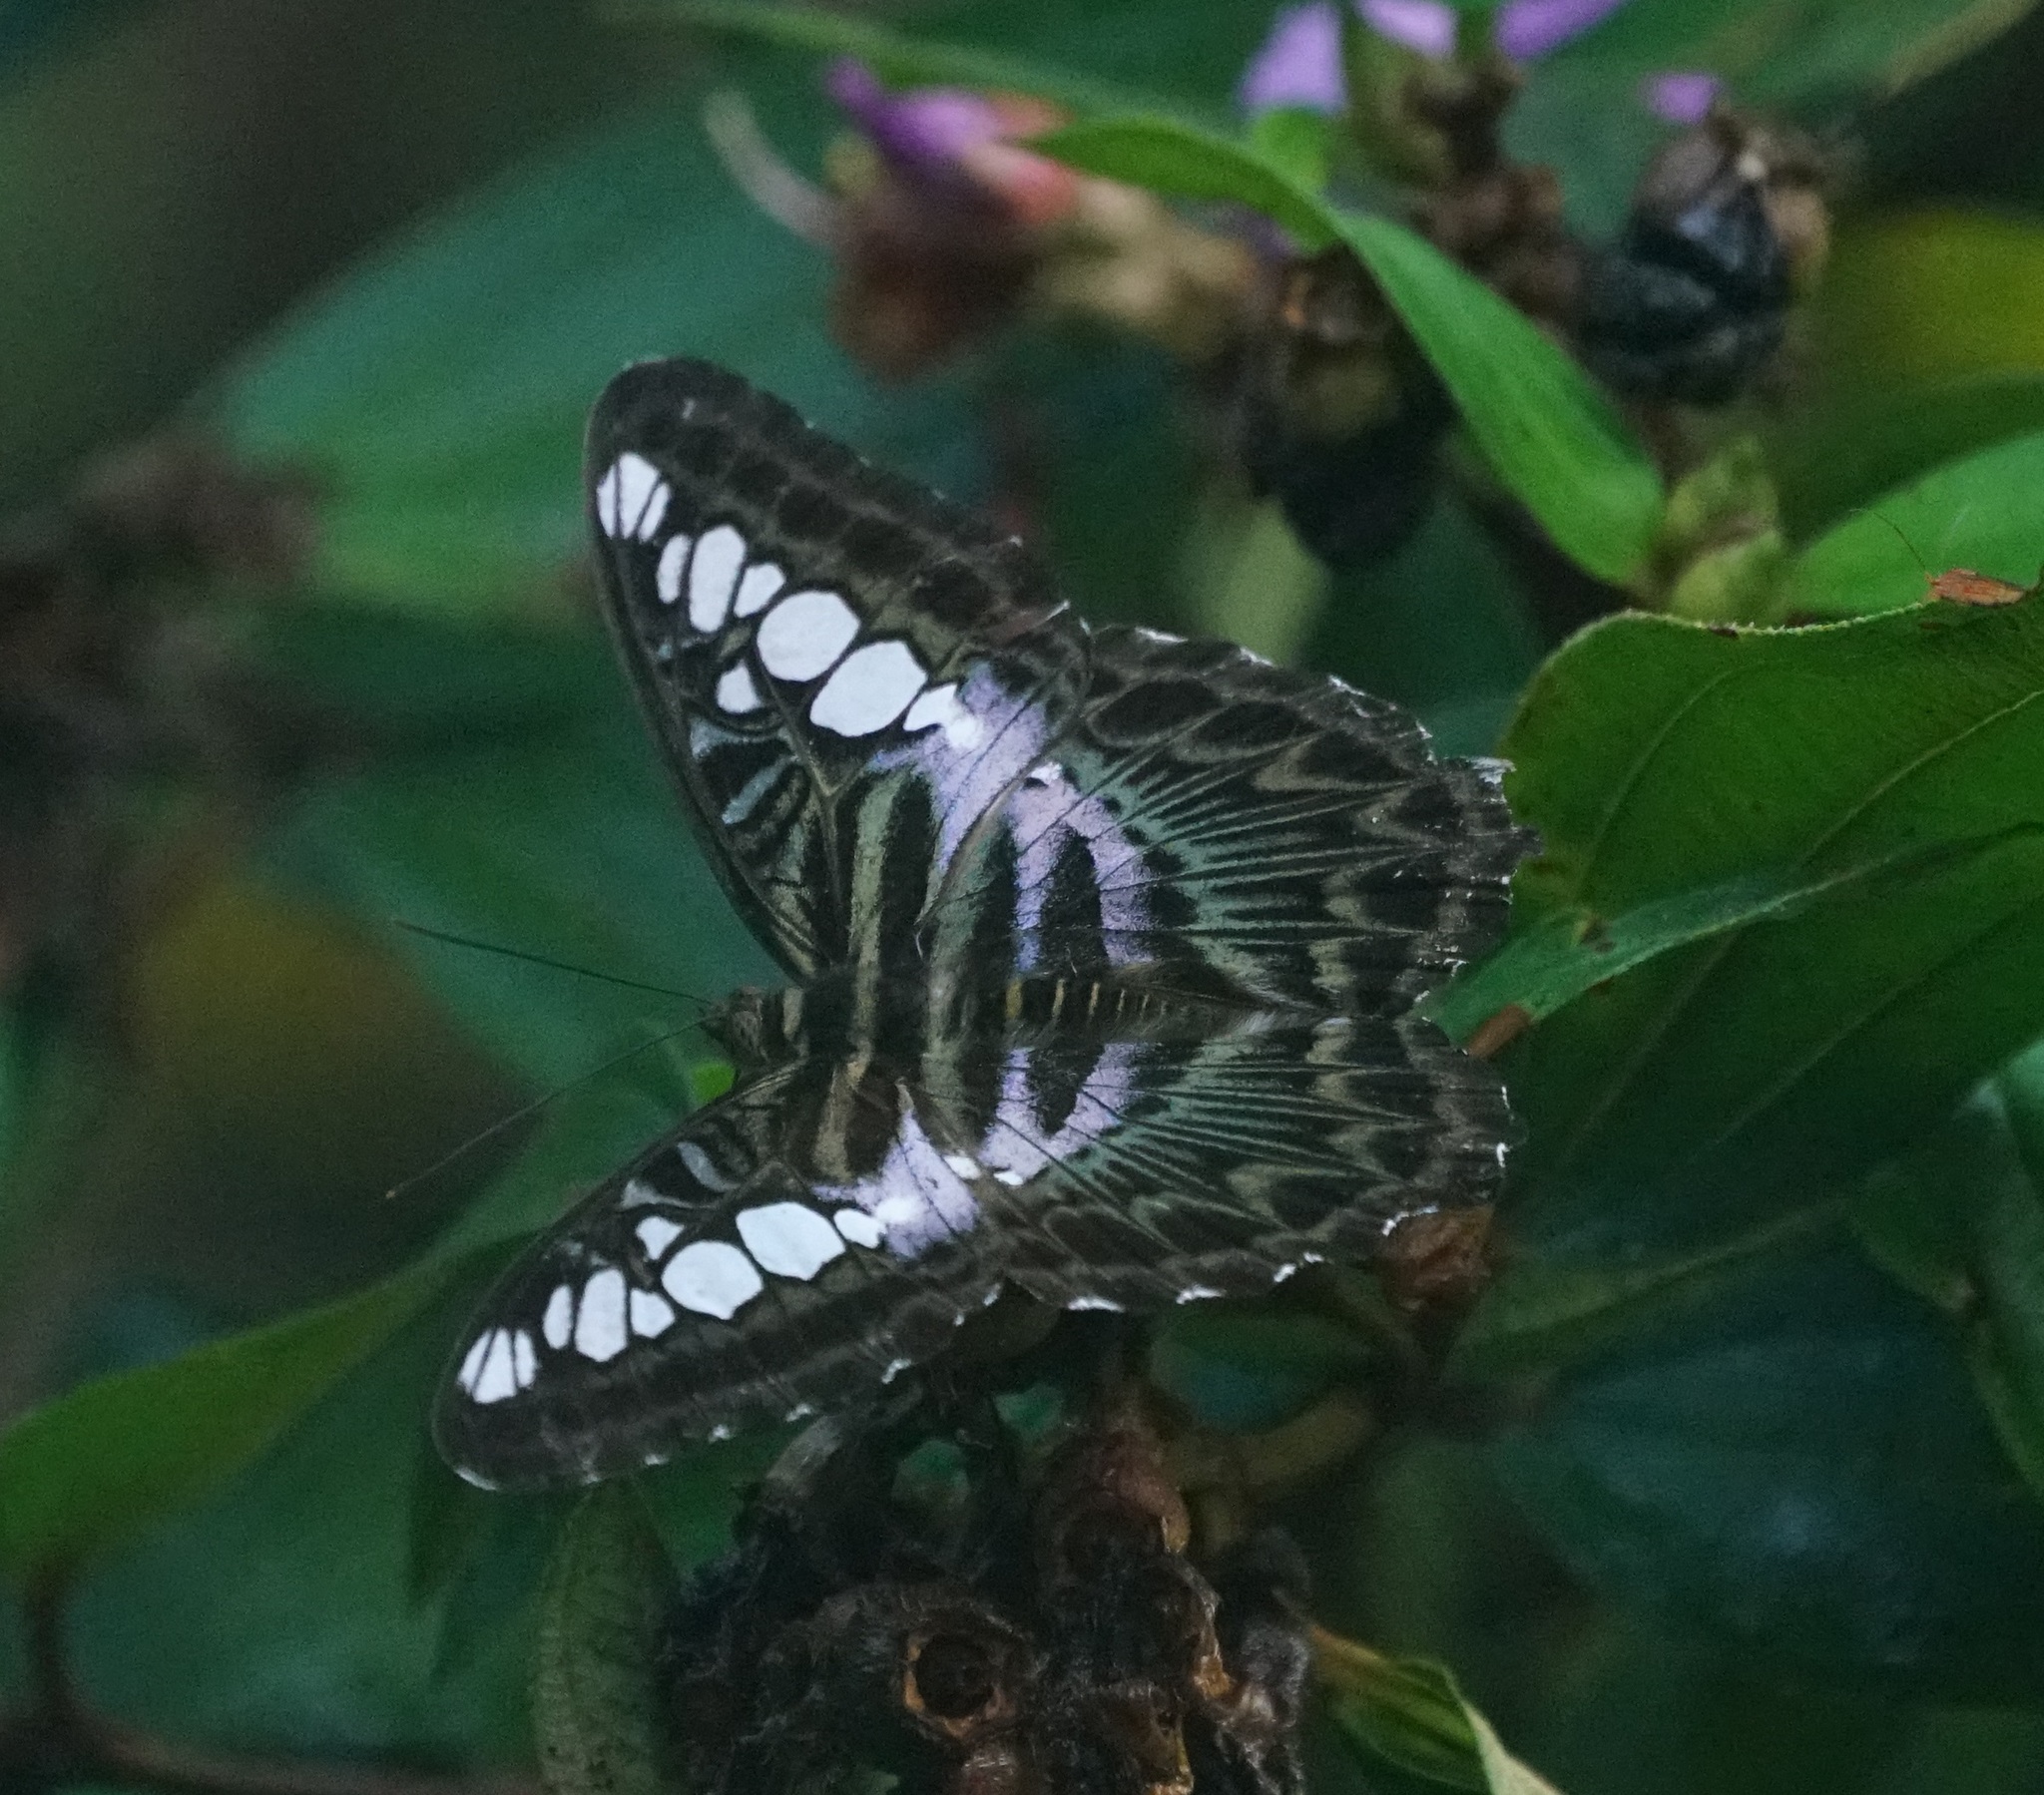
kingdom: Animalia
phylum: Arthropoda
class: Insecta
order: Lepidoptera
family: Nymphalidae
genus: Kallima
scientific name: Kallima sylvia
